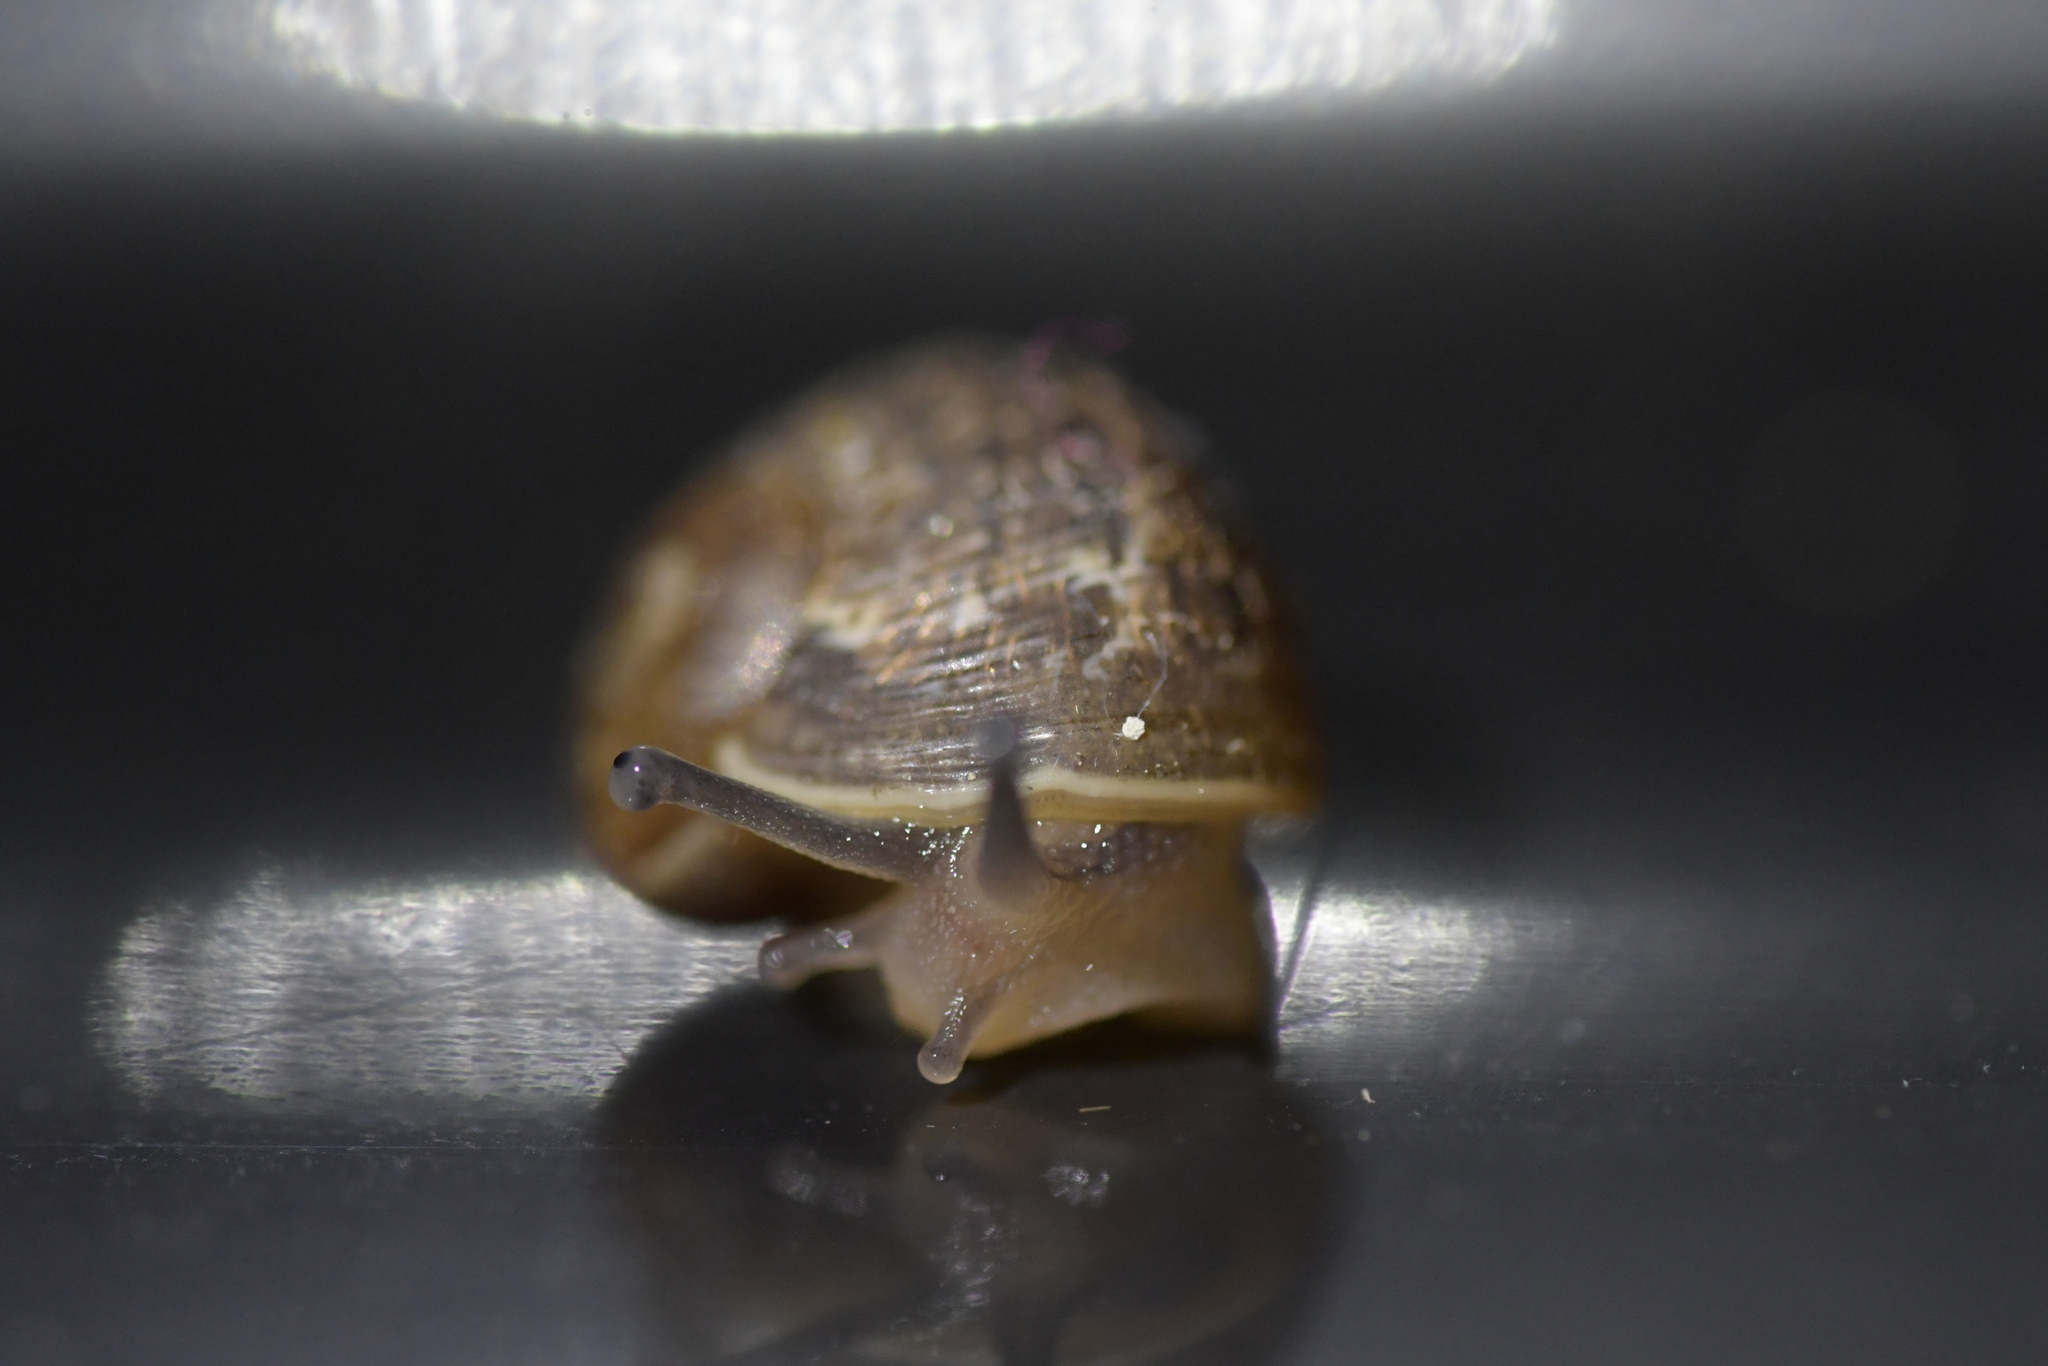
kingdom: Animalia
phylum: Mollusca
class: Gastropoda
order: Stylommatophora
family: Helicidae
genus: Cornu
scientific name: Cornu aspersum
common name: Brown garden snail
